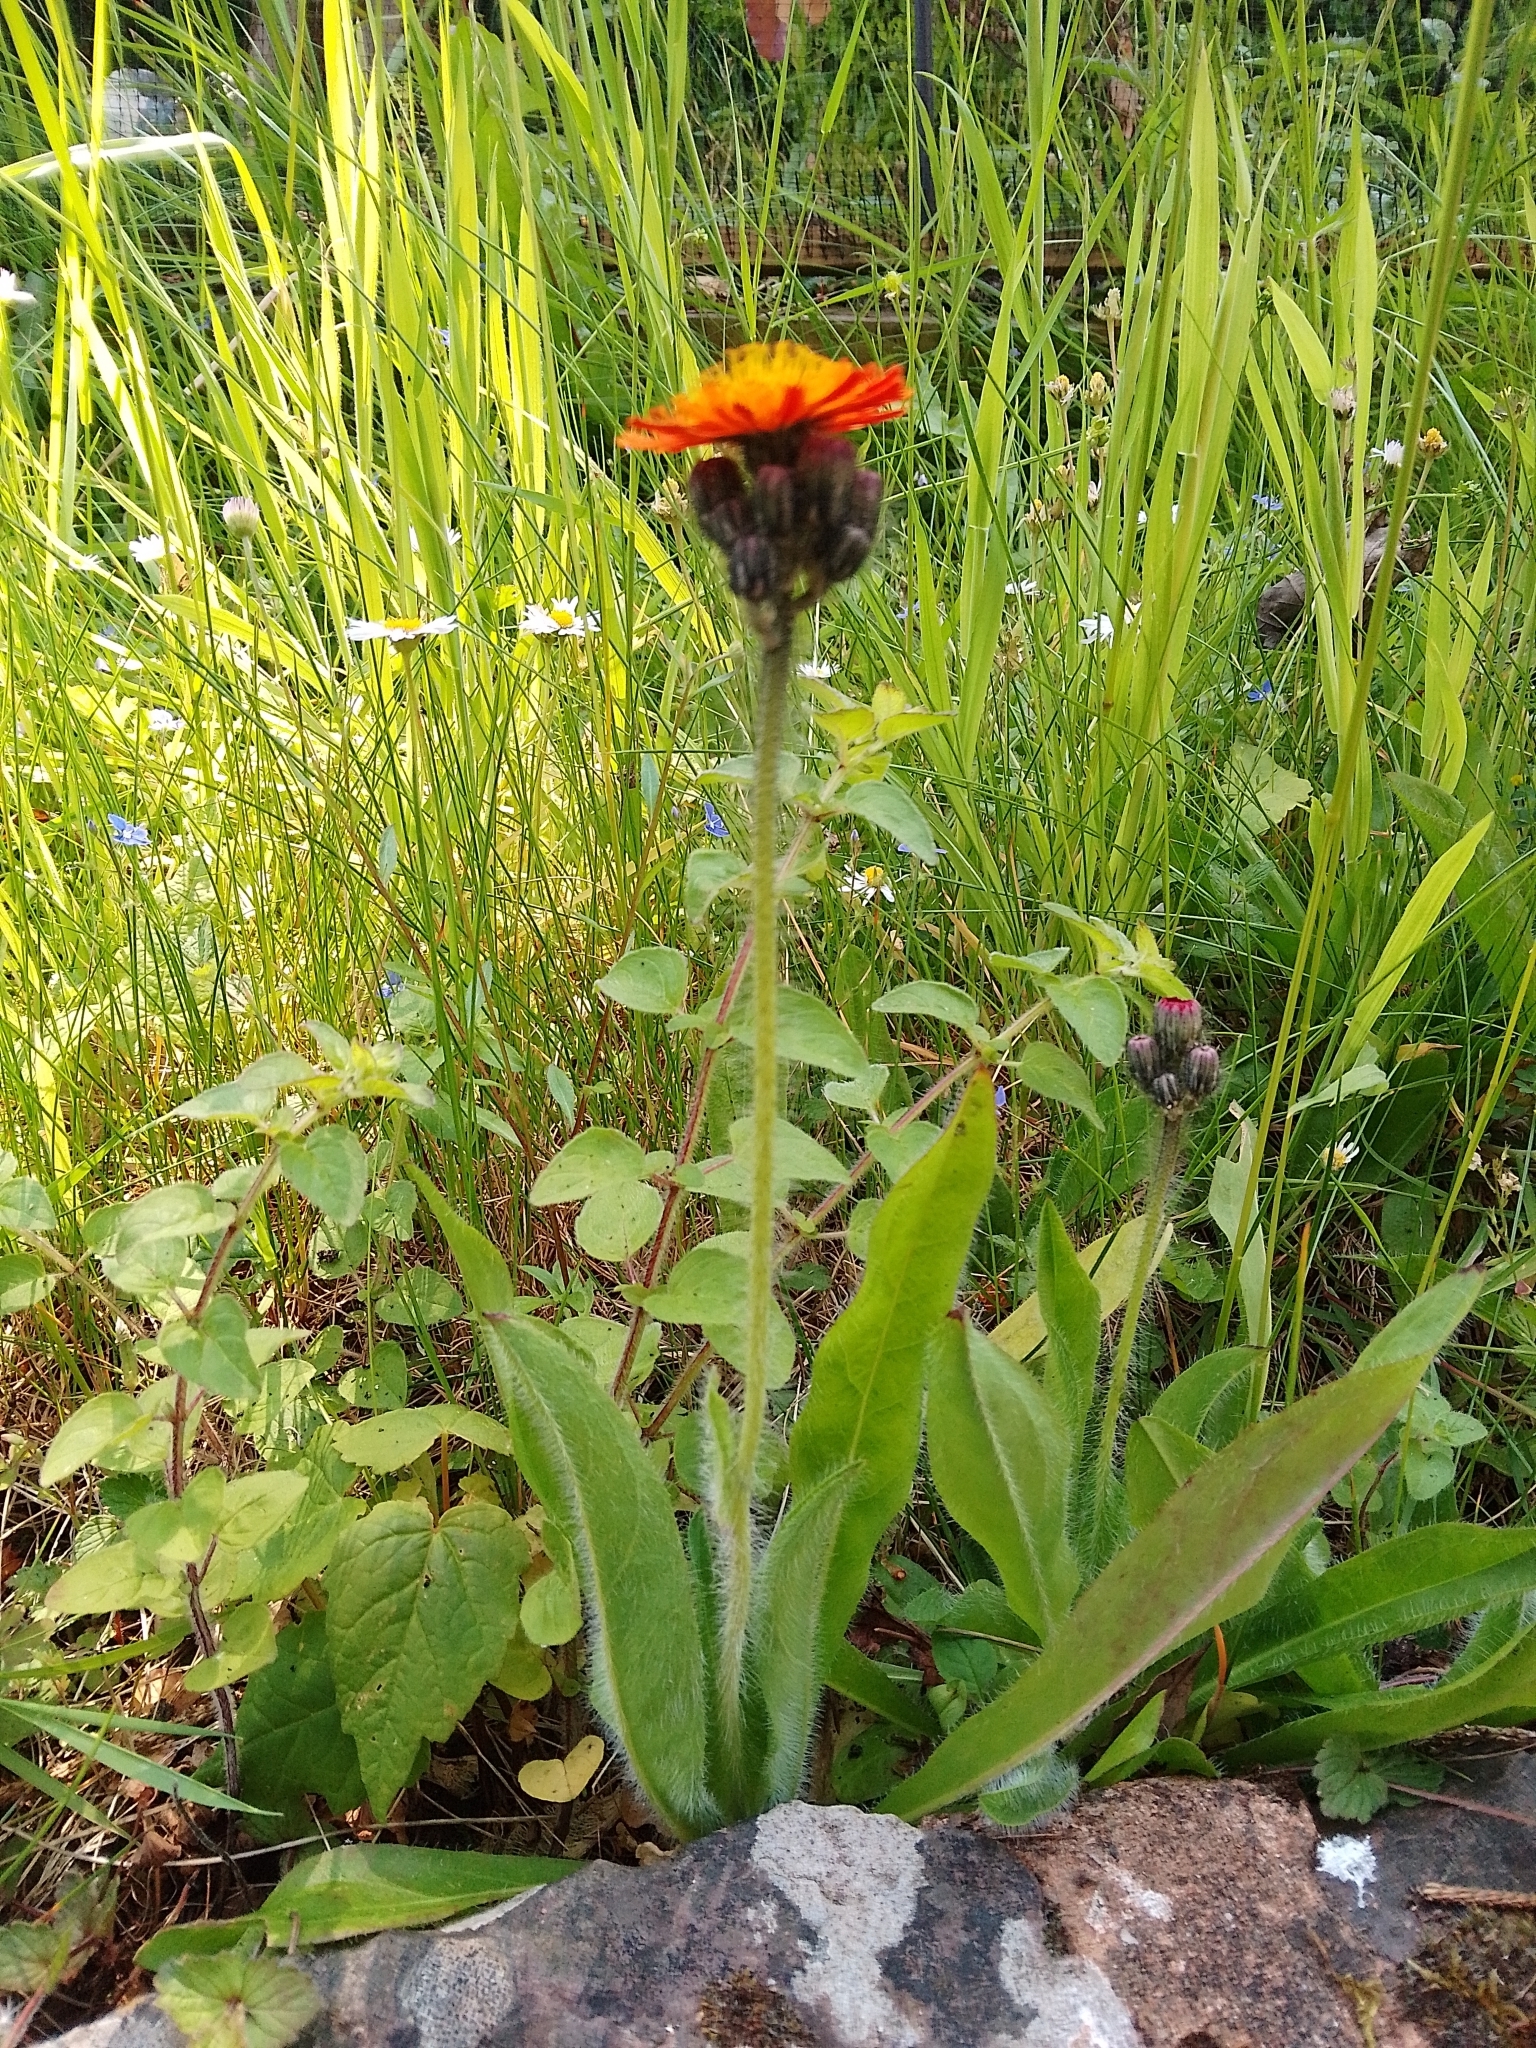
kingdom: Plantae
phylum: Tracheophyta
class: Magnoliopsida
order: Asterales
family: Asteraceae
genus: Pilosella
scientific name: Pilosella aurantiaca
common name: Fox-and-cubs
